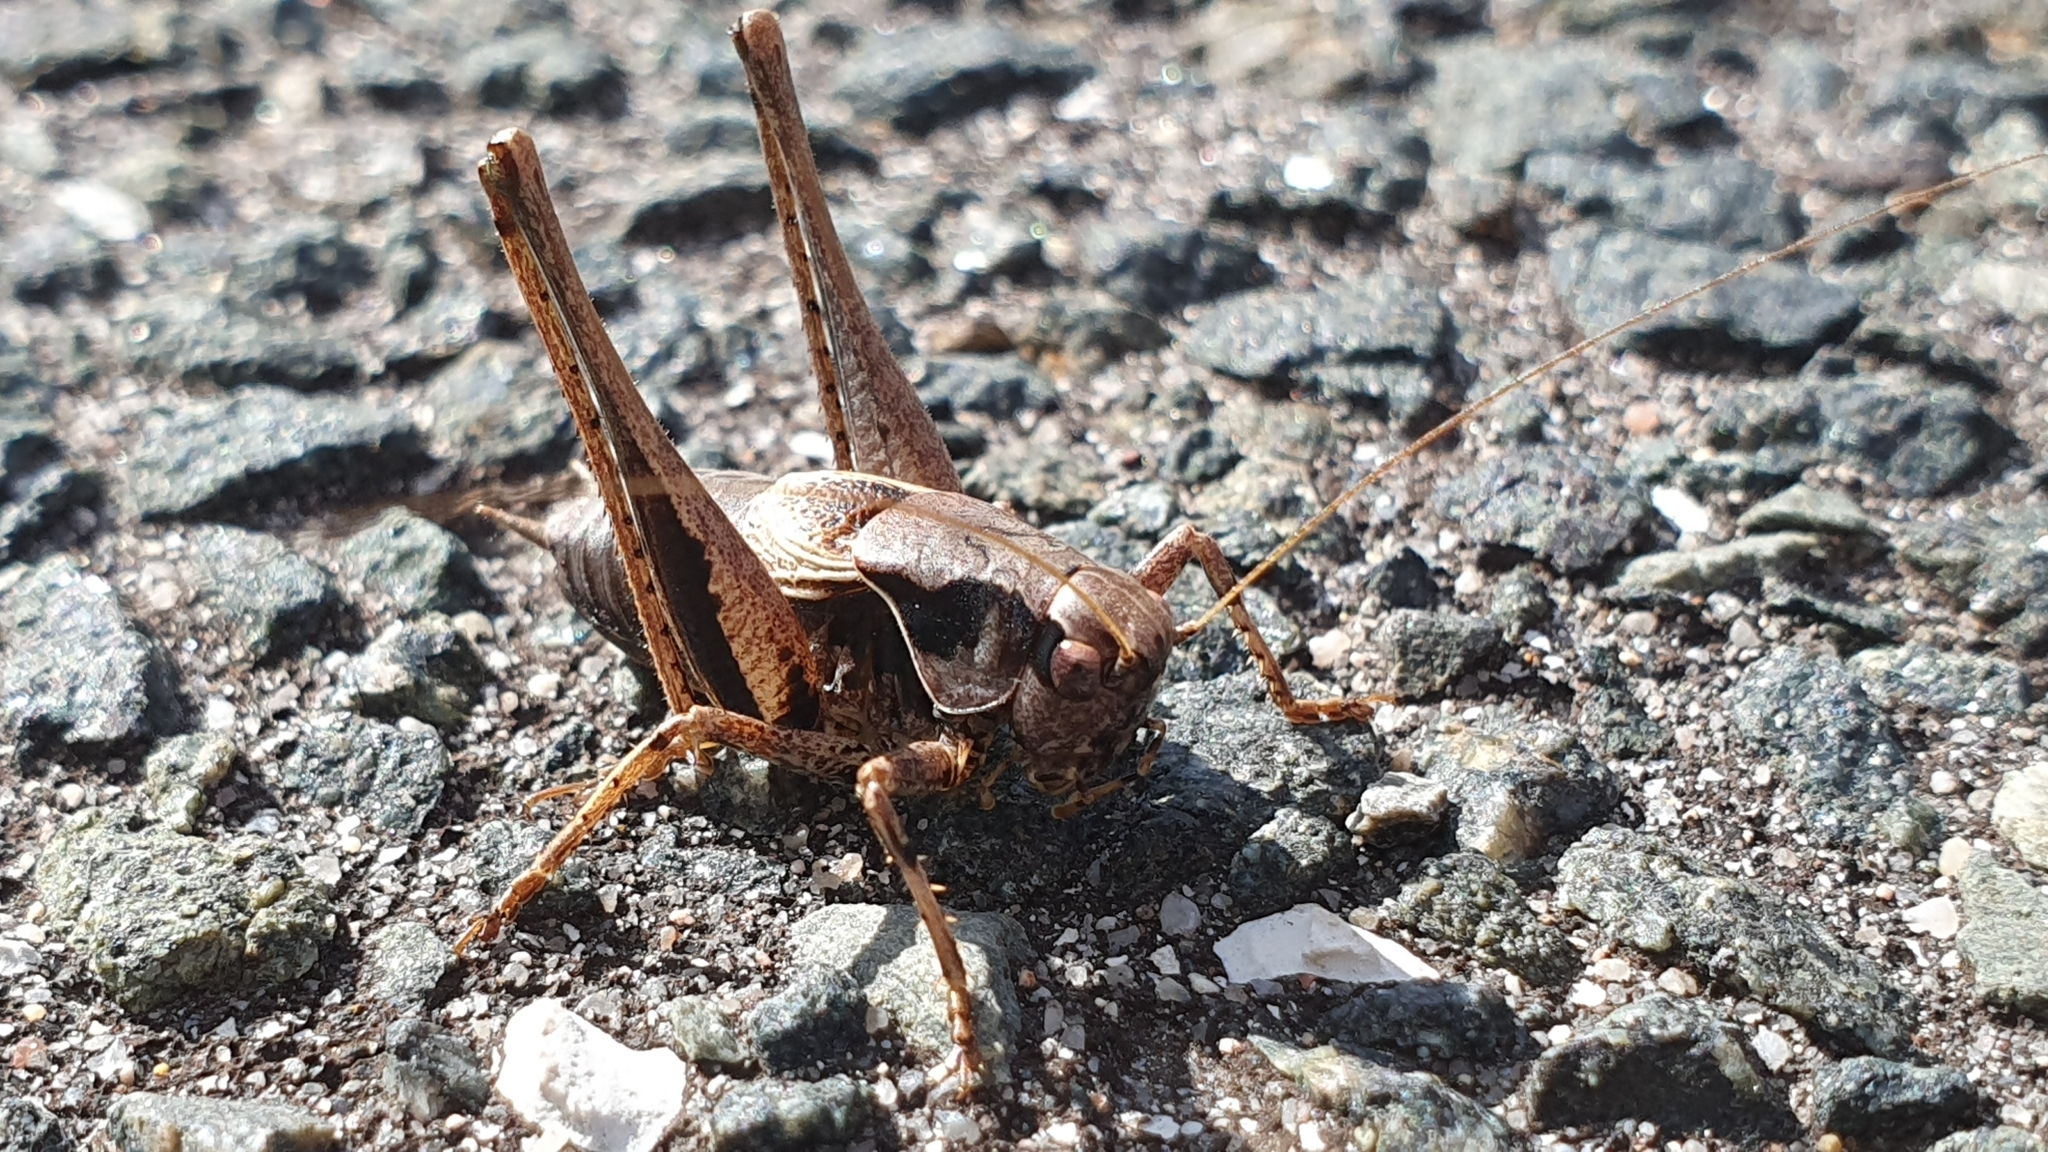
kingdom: Animalia
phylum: Arthropoda
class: Insecta
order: Orthoptera
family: Tettigoniidae
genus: Pholidoptera
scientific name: Pholidoptera griseoaptera
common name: Dark bush-cricket
